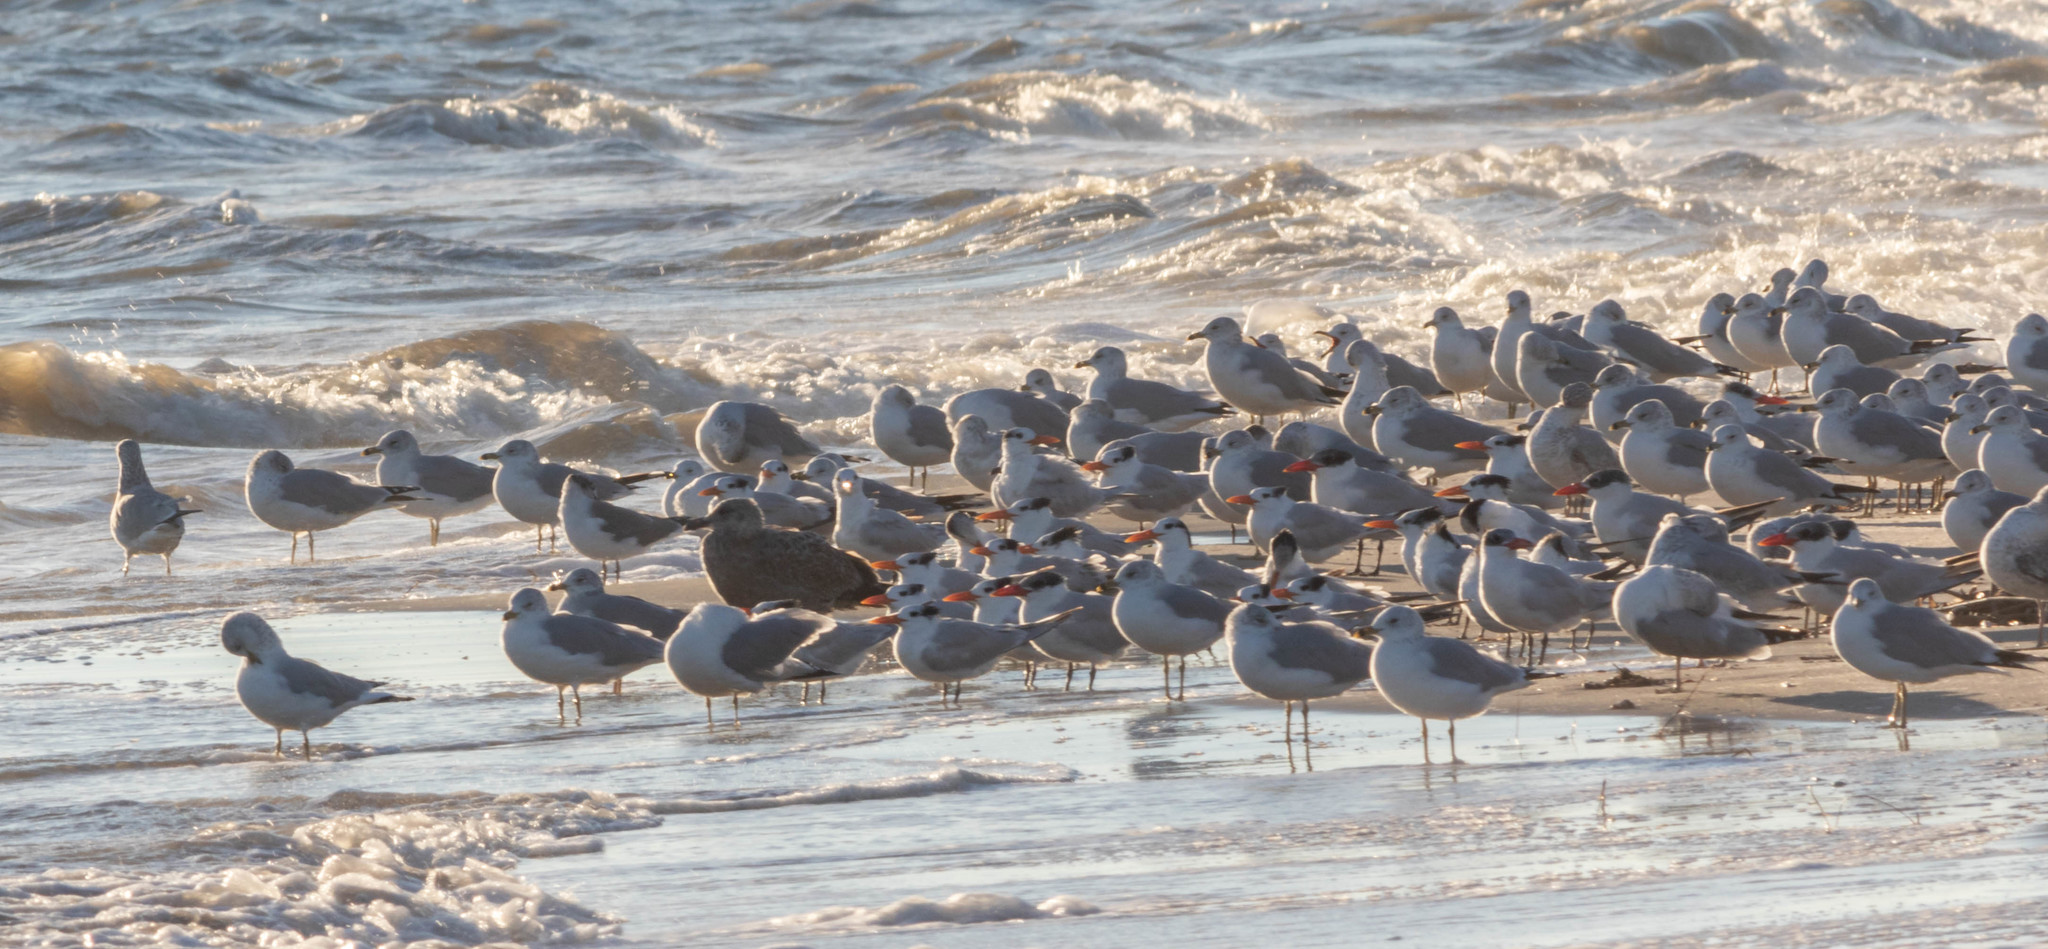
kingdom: Animalia
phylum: Chordata
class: Aves
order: Charadriiformes
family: Laridae
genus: Thalasseus
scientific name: Thalasseus maximus
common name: Royal tern
